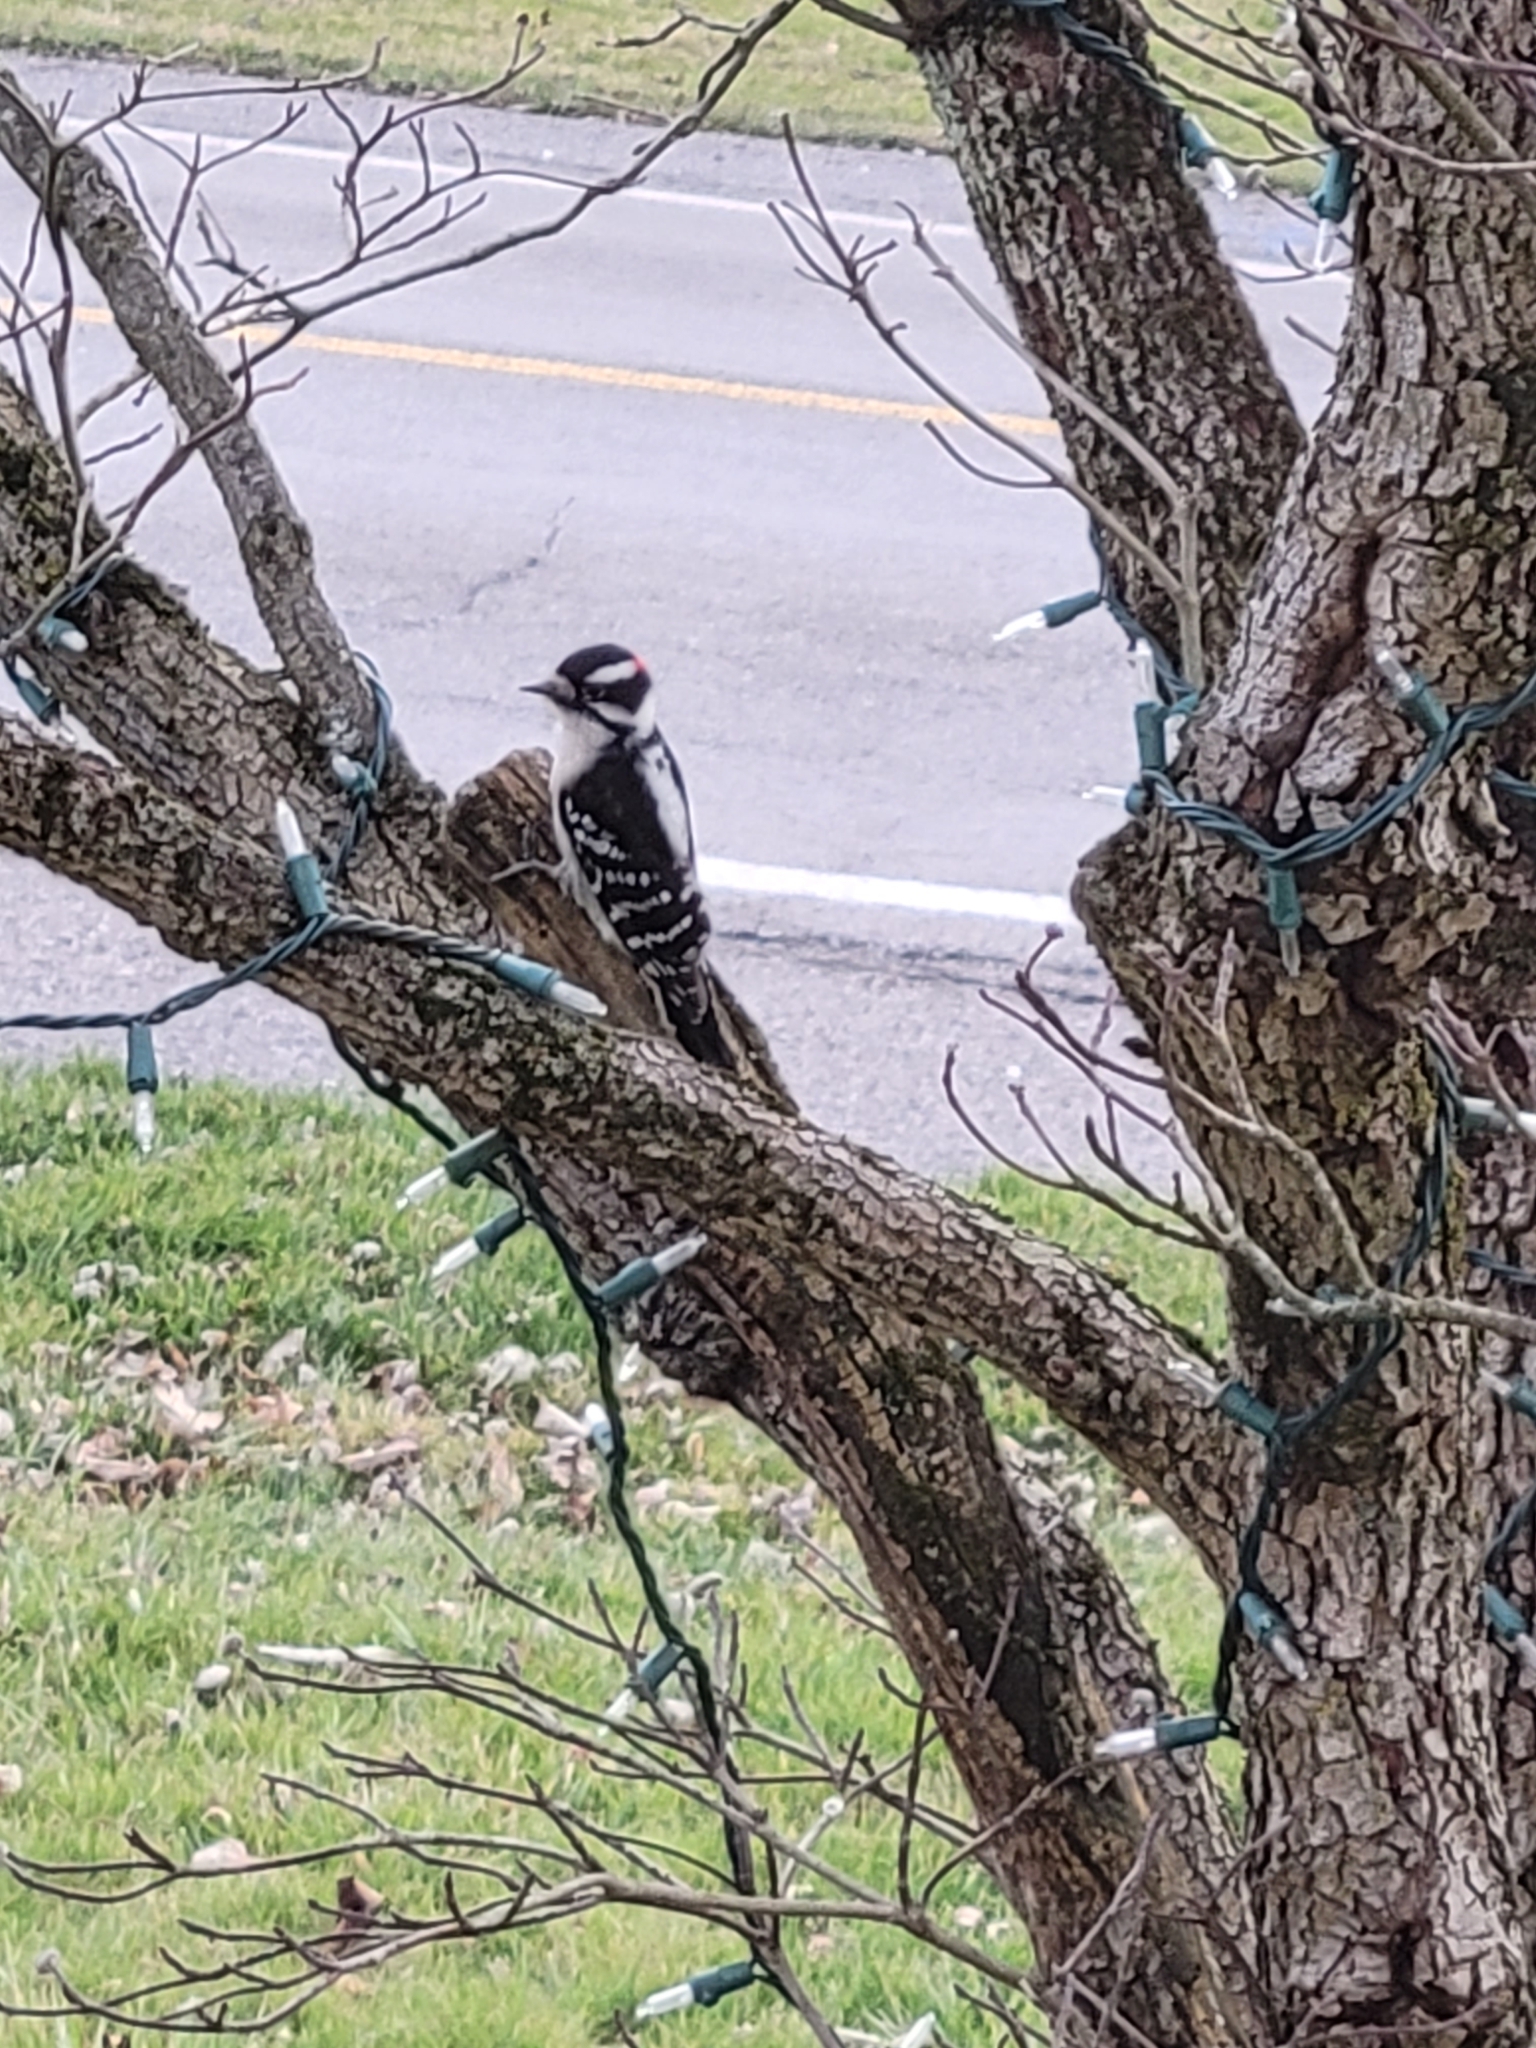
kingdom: Animalia
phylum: Chordata
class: Aves
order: Piciformes
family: Picidae
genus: Dryobates
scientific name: Dryobates pubescens
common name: Downy woodpecker
